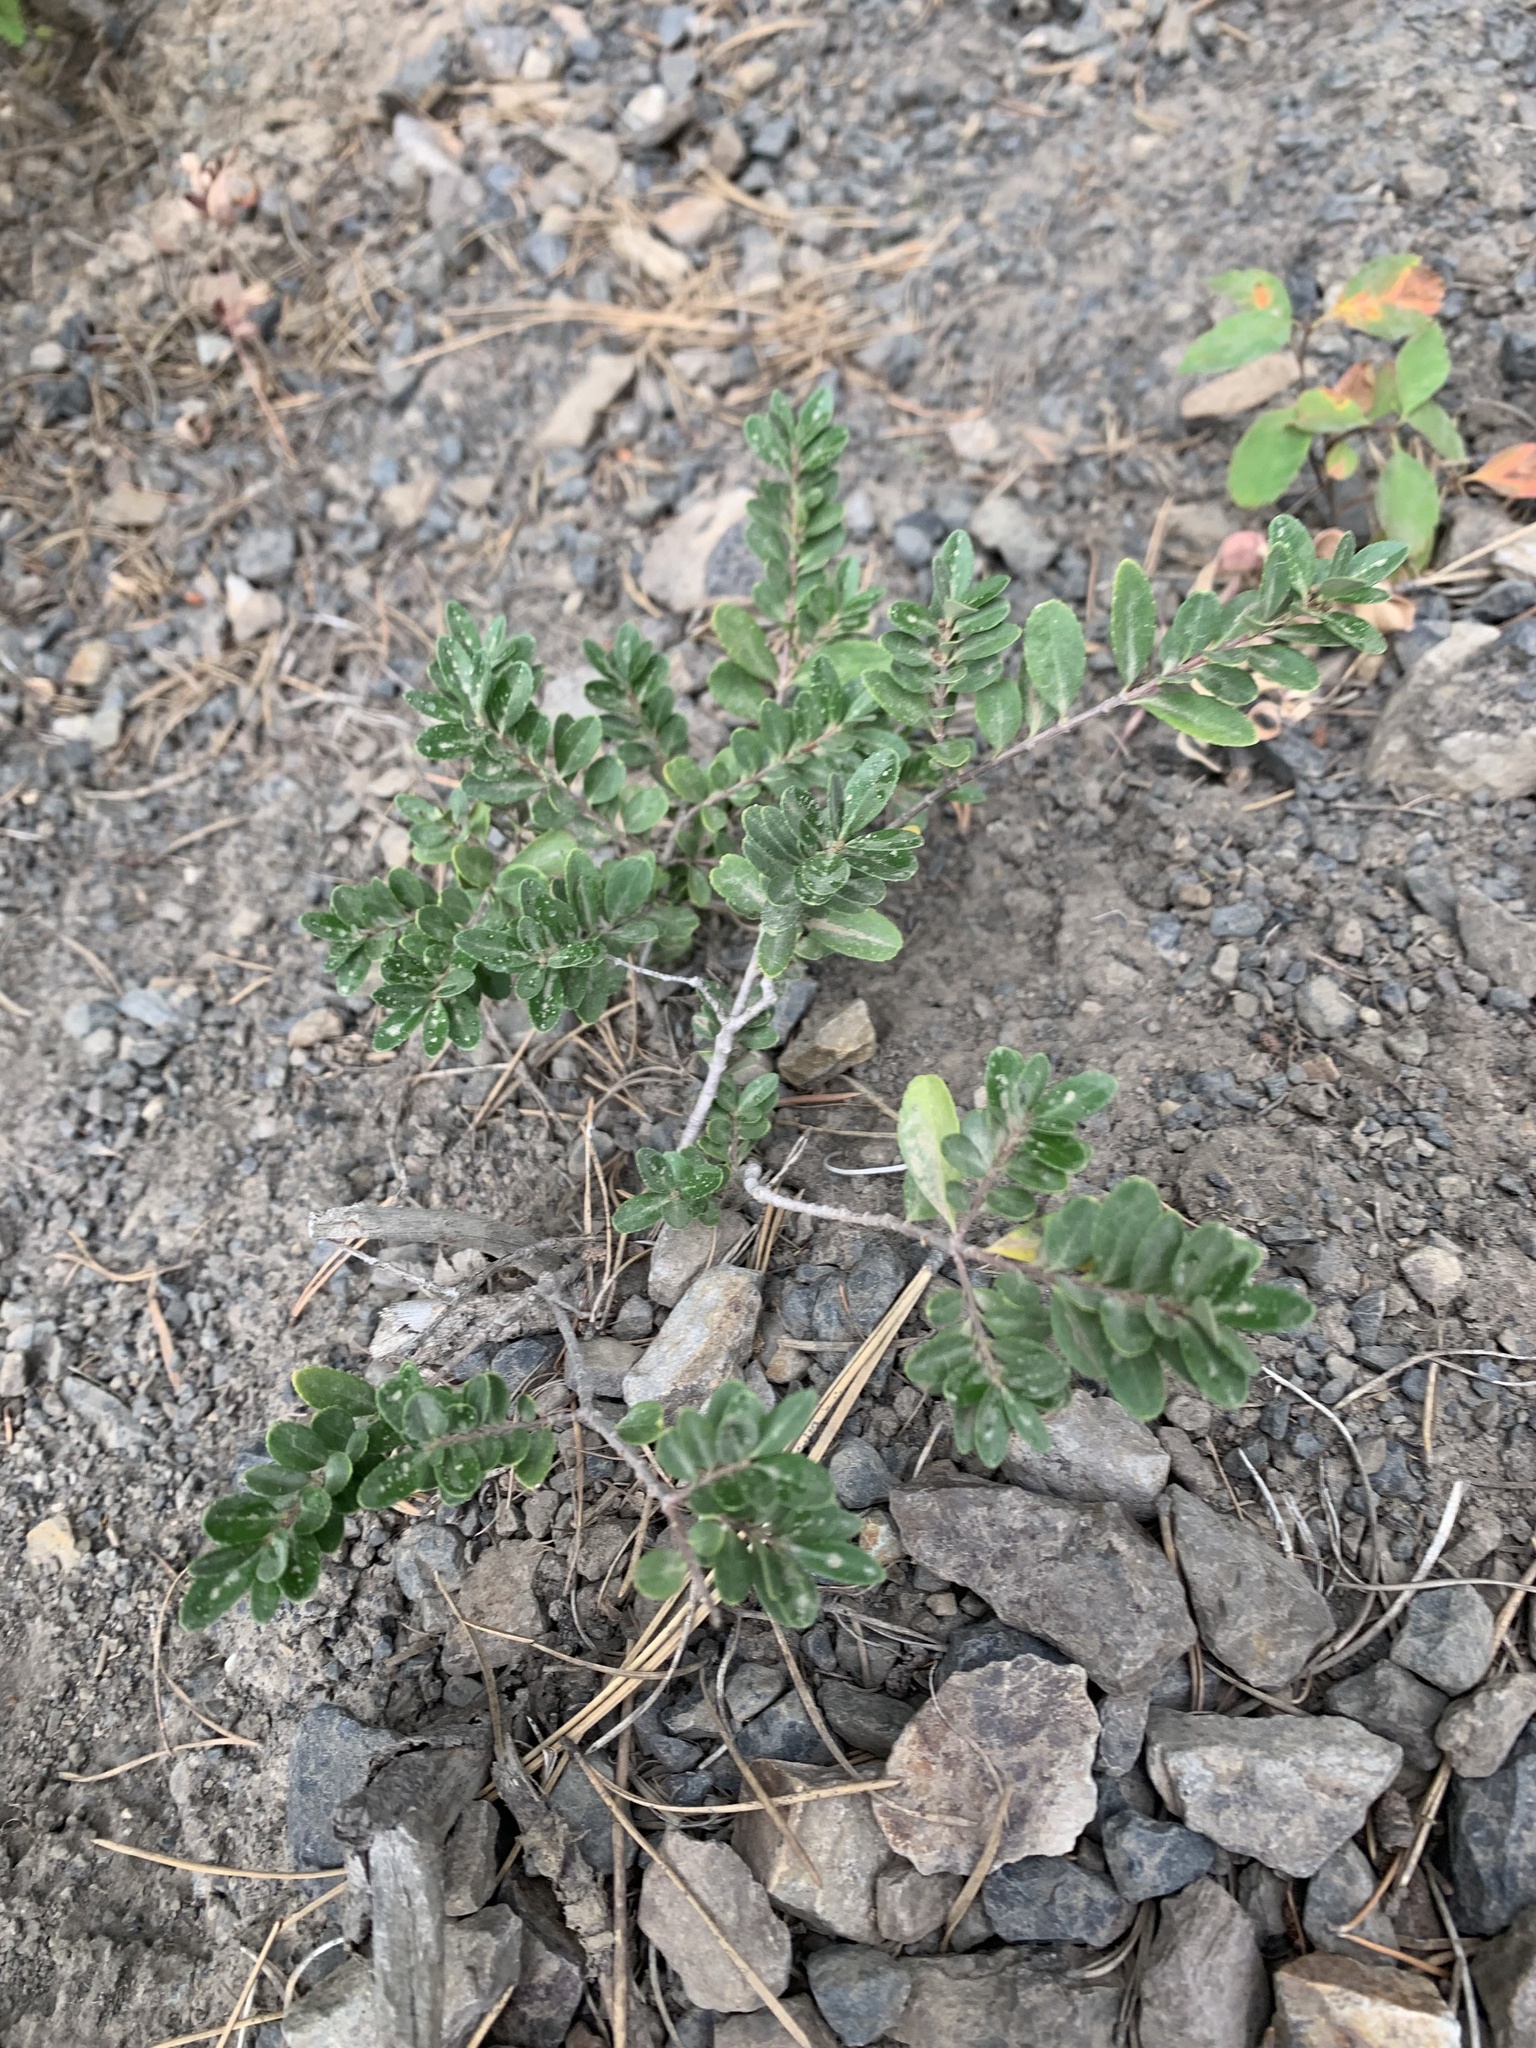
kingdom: Plantae
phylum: Tracheophyta
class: Magnoliopsida
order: Celastrales
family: Celastraceae
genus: Paxistima
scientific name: Paxistima myrsinites
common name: Mountain-lover
